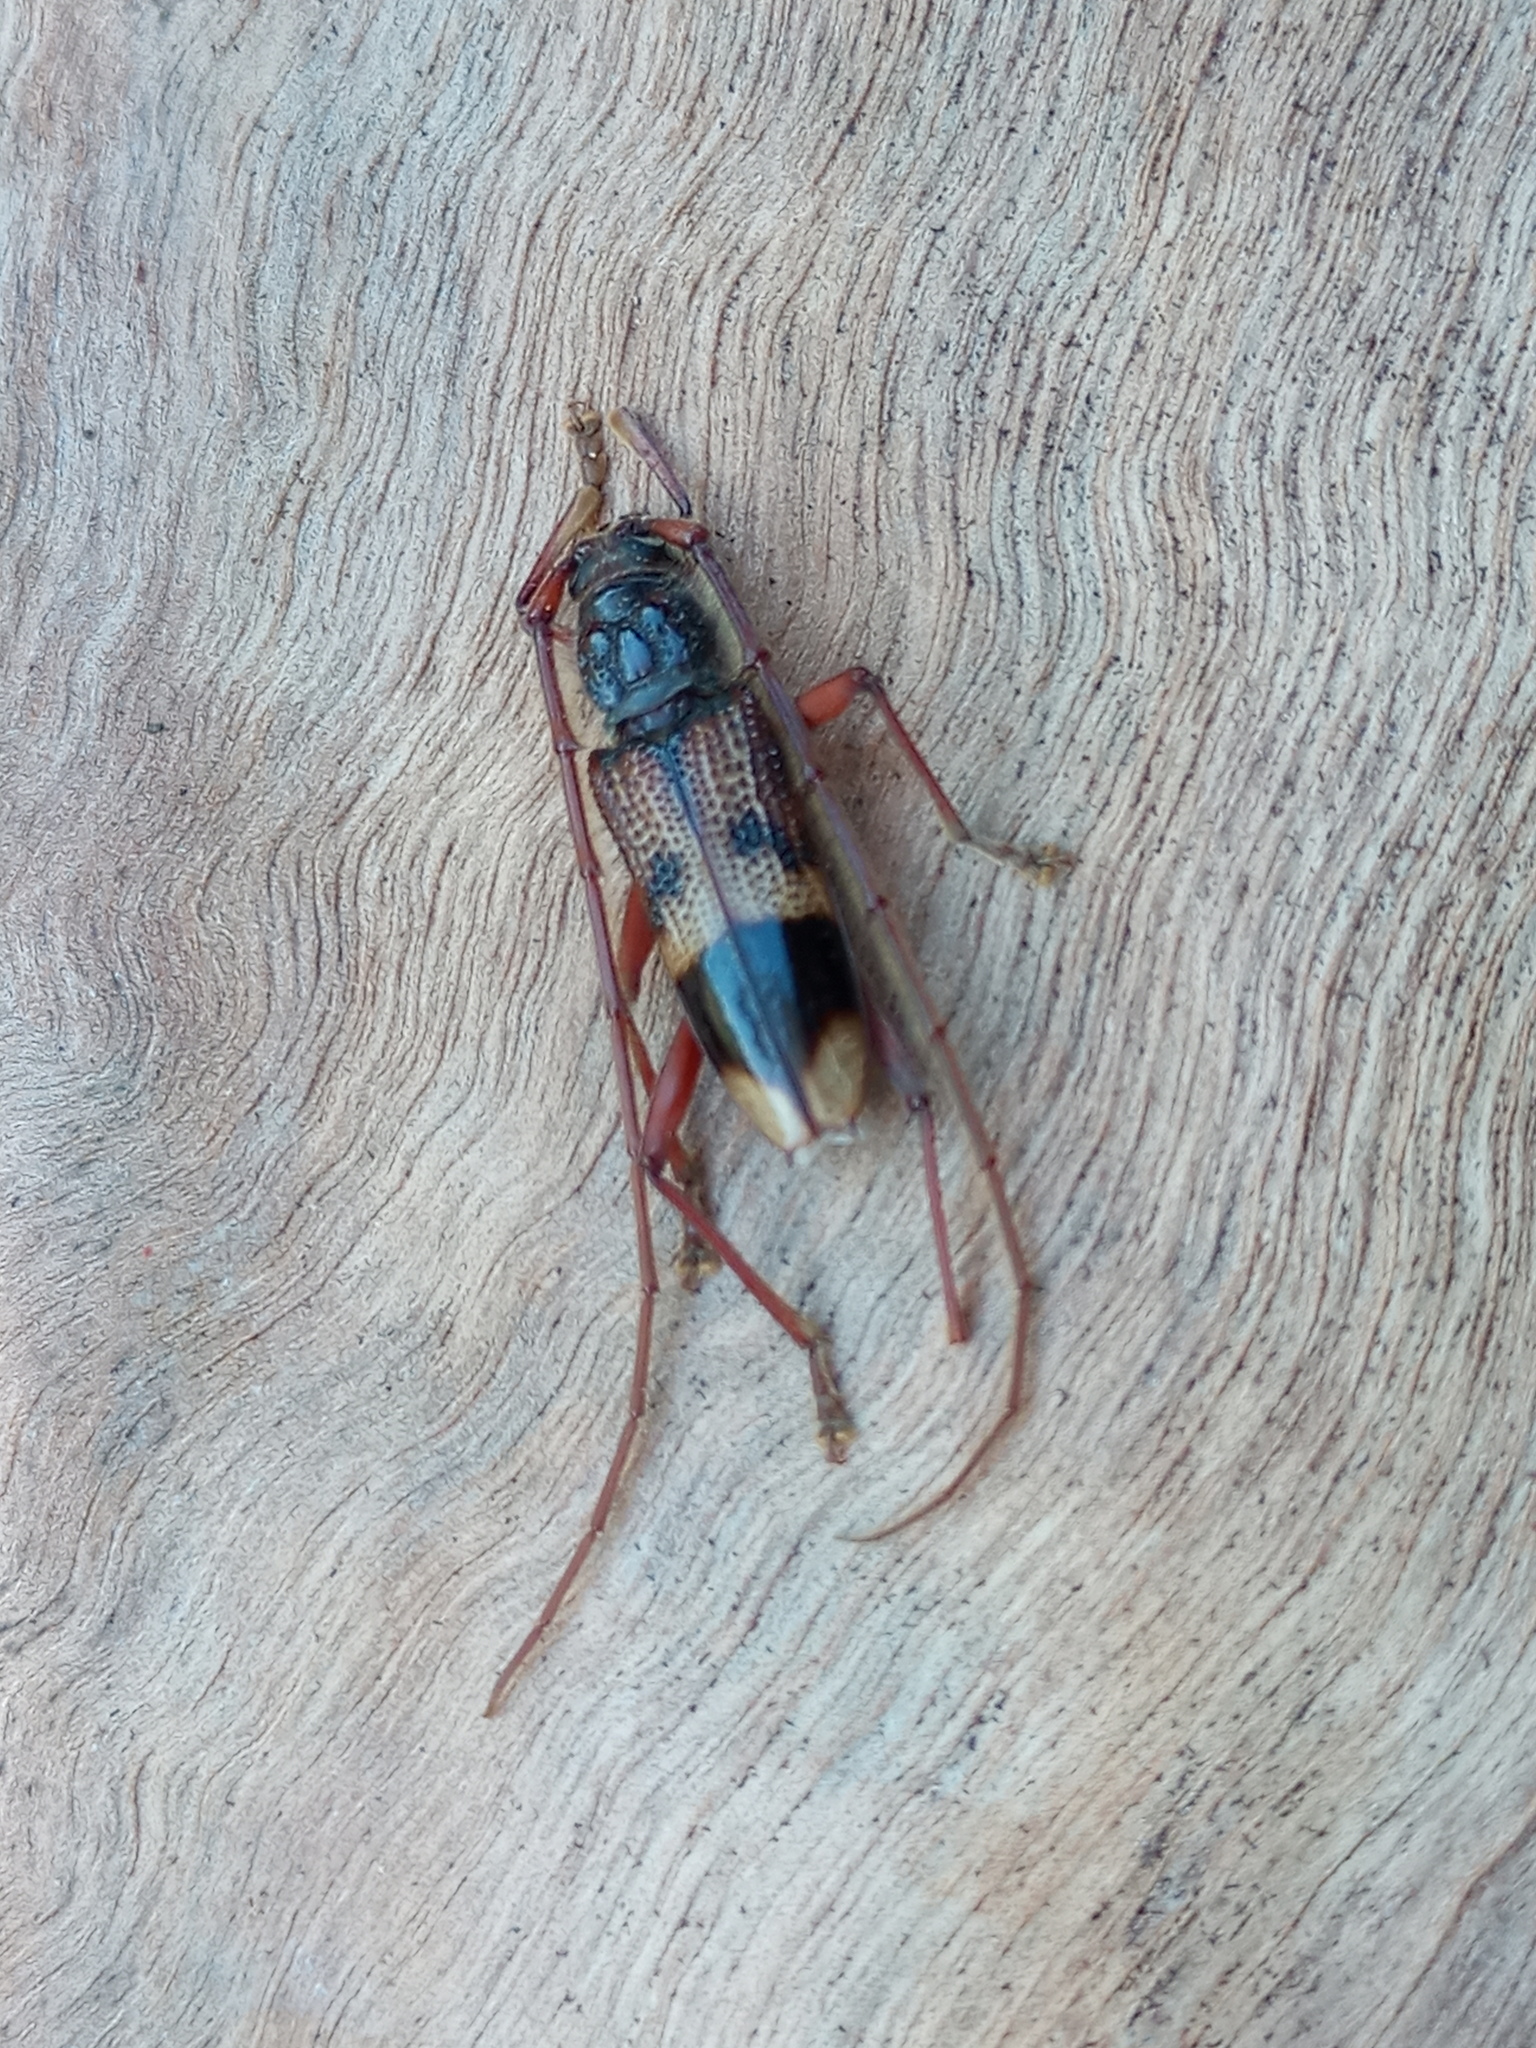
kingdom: Animalia
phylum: Arthropoda
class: Insecta
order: Coleoptera
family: Cerambycidae
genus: Phoracantha
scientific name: Phoracantha recurva
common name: Eucalyptus longhorned borer
